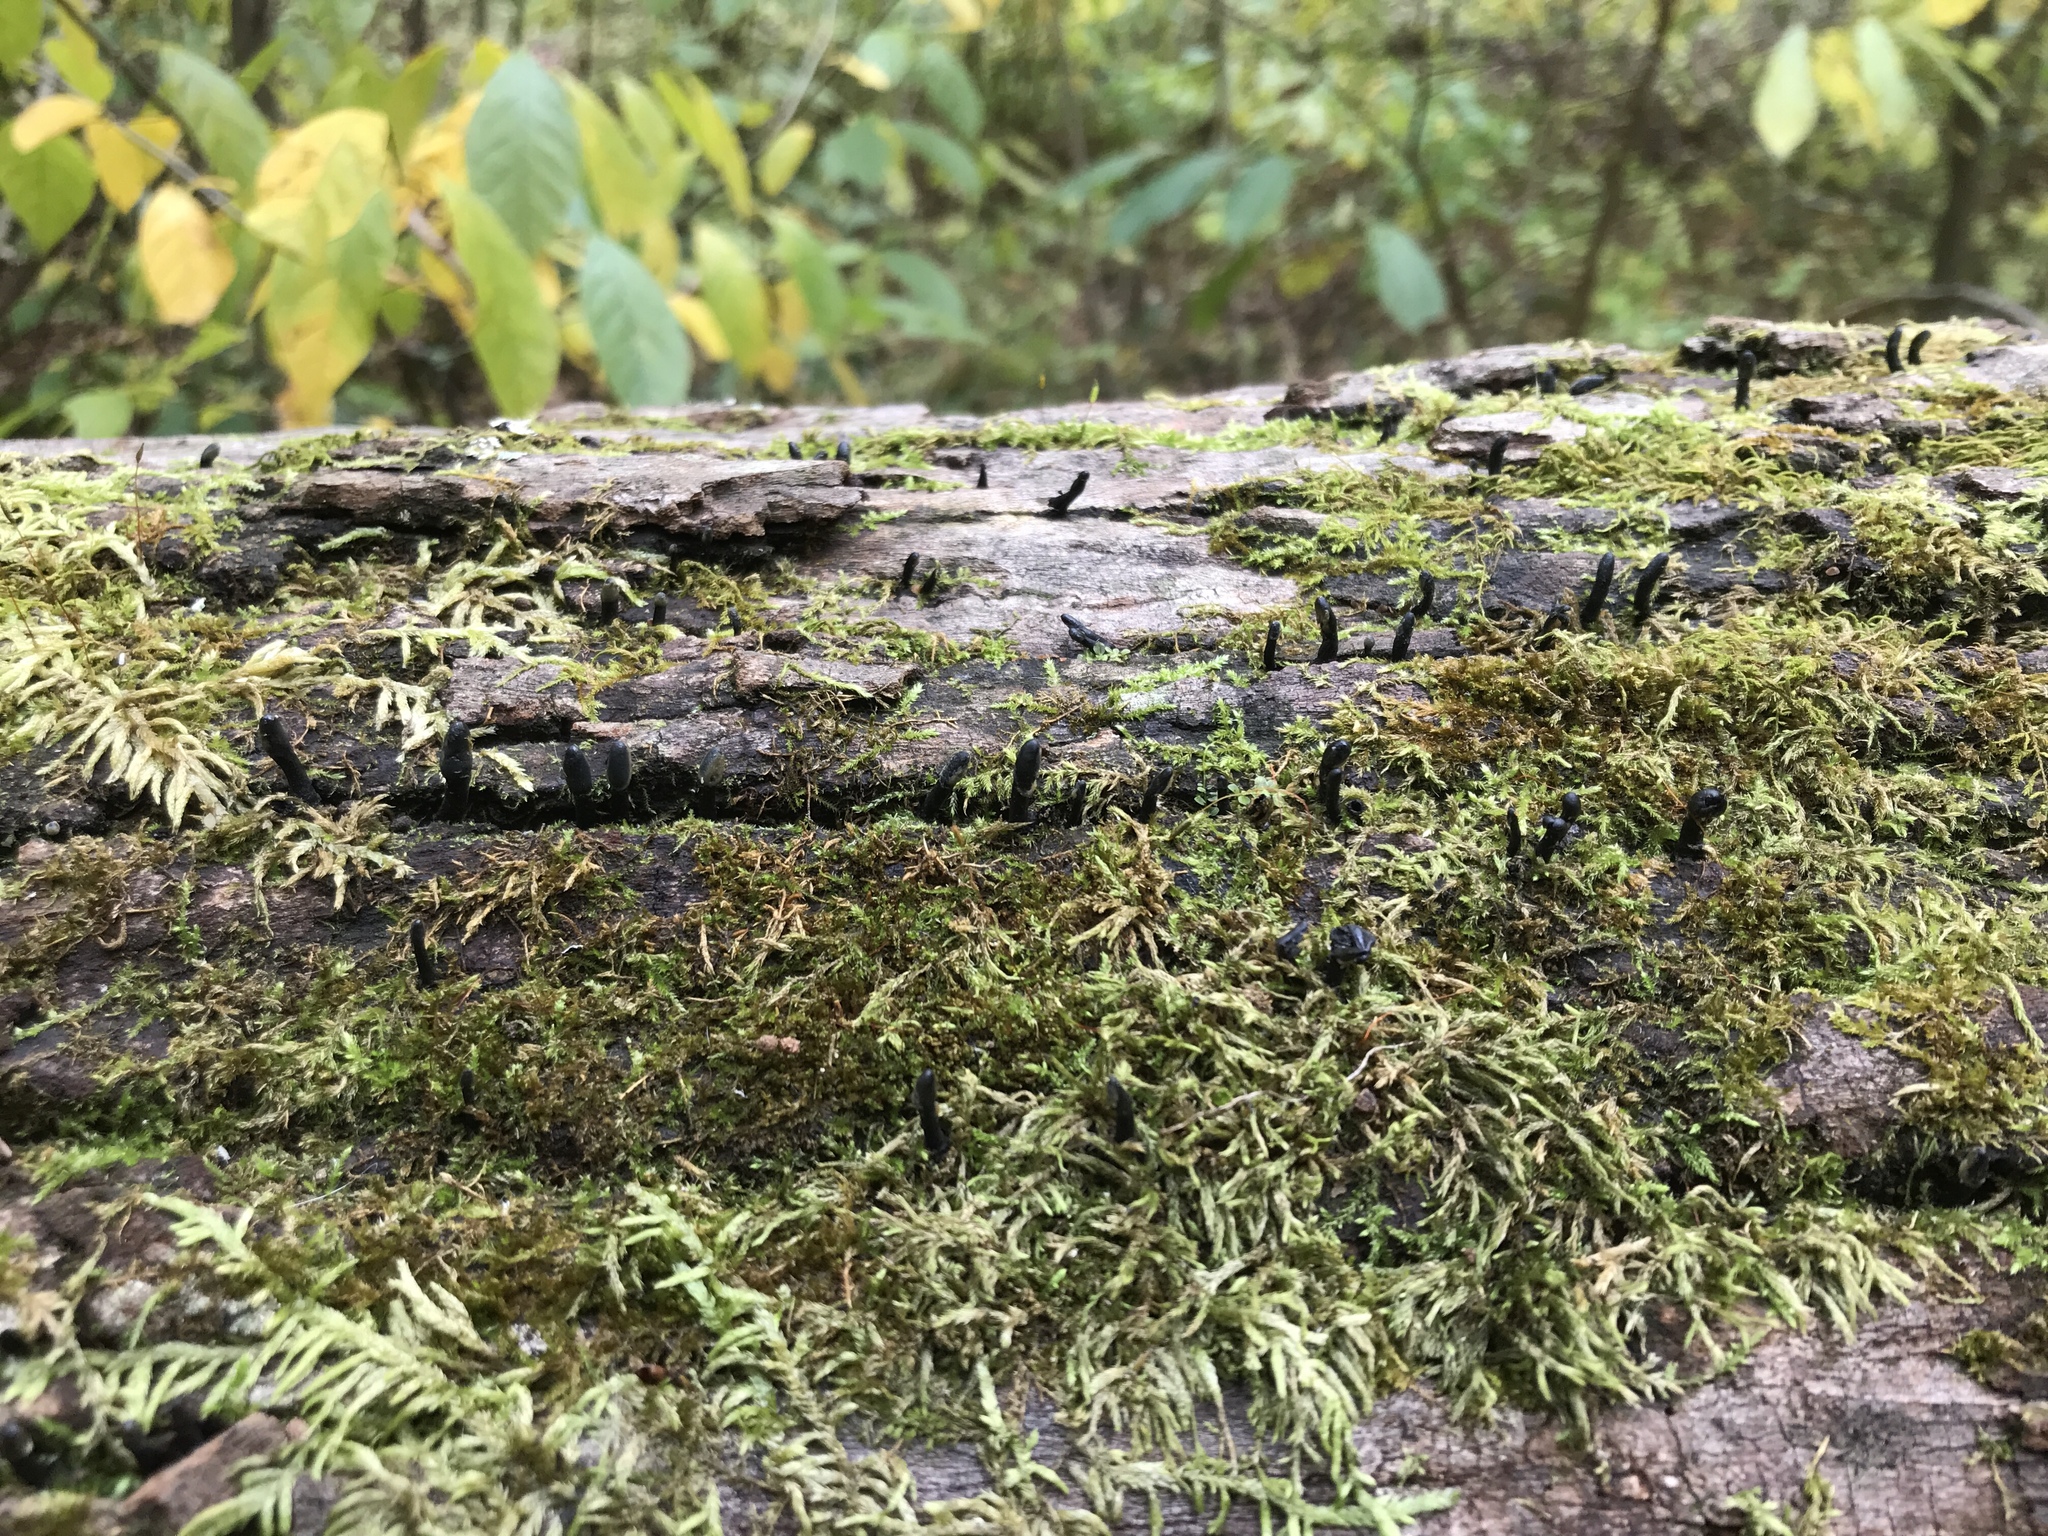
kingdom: Fungi
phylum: Ascomycota
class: Leotiomycetes
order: Helotiales
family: Bulgariaceae
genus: Holwaya
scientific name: Holwaya mucida
